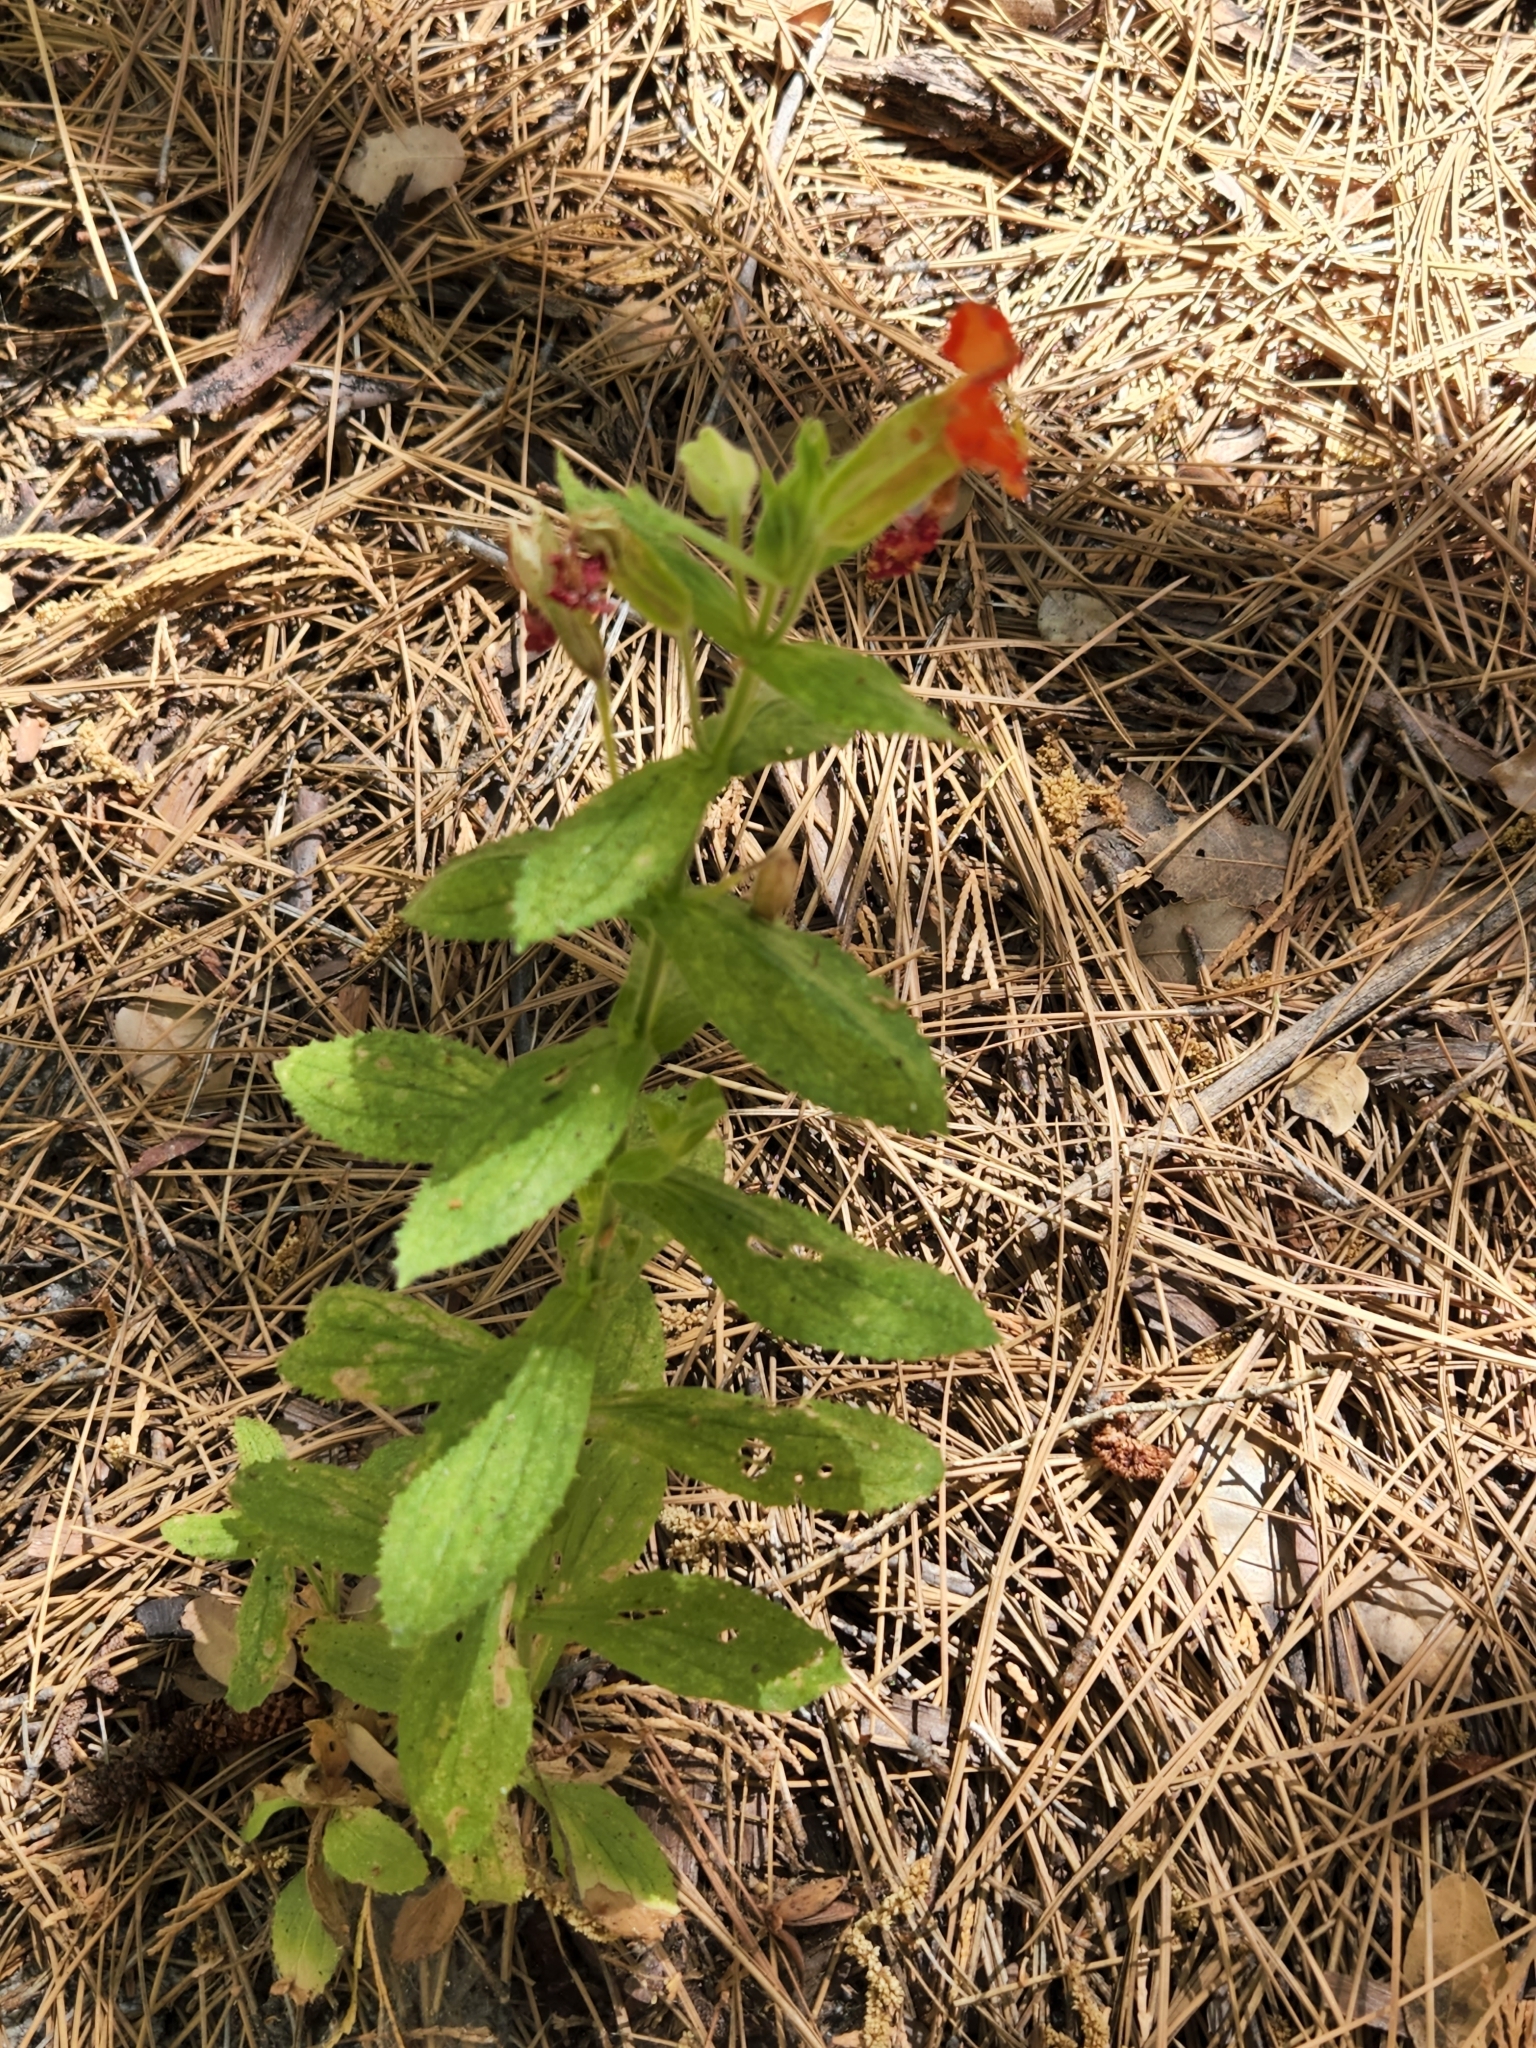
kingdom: Plantae
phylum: Tracheophyta
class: Magnoliopsida
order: Lamiales
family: Phrymaceae
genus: Erythranthe
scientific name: Erythranthe cardinalis
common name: Scarlet monkey-flower
